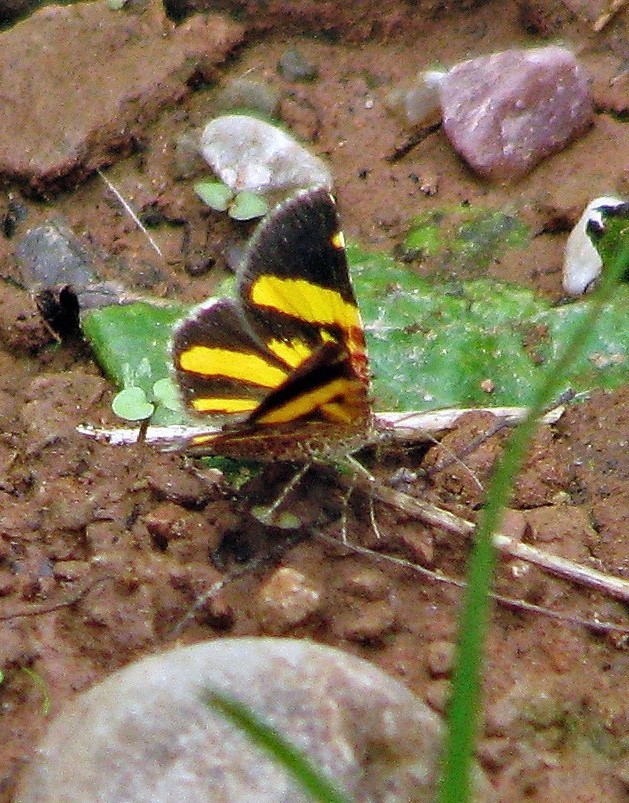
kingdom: Animalia
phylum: Arthropoda
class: Insecta
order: Lepidoptera
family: Geometridae
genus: Heterusia
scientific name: Heterusia quadruplicaria
